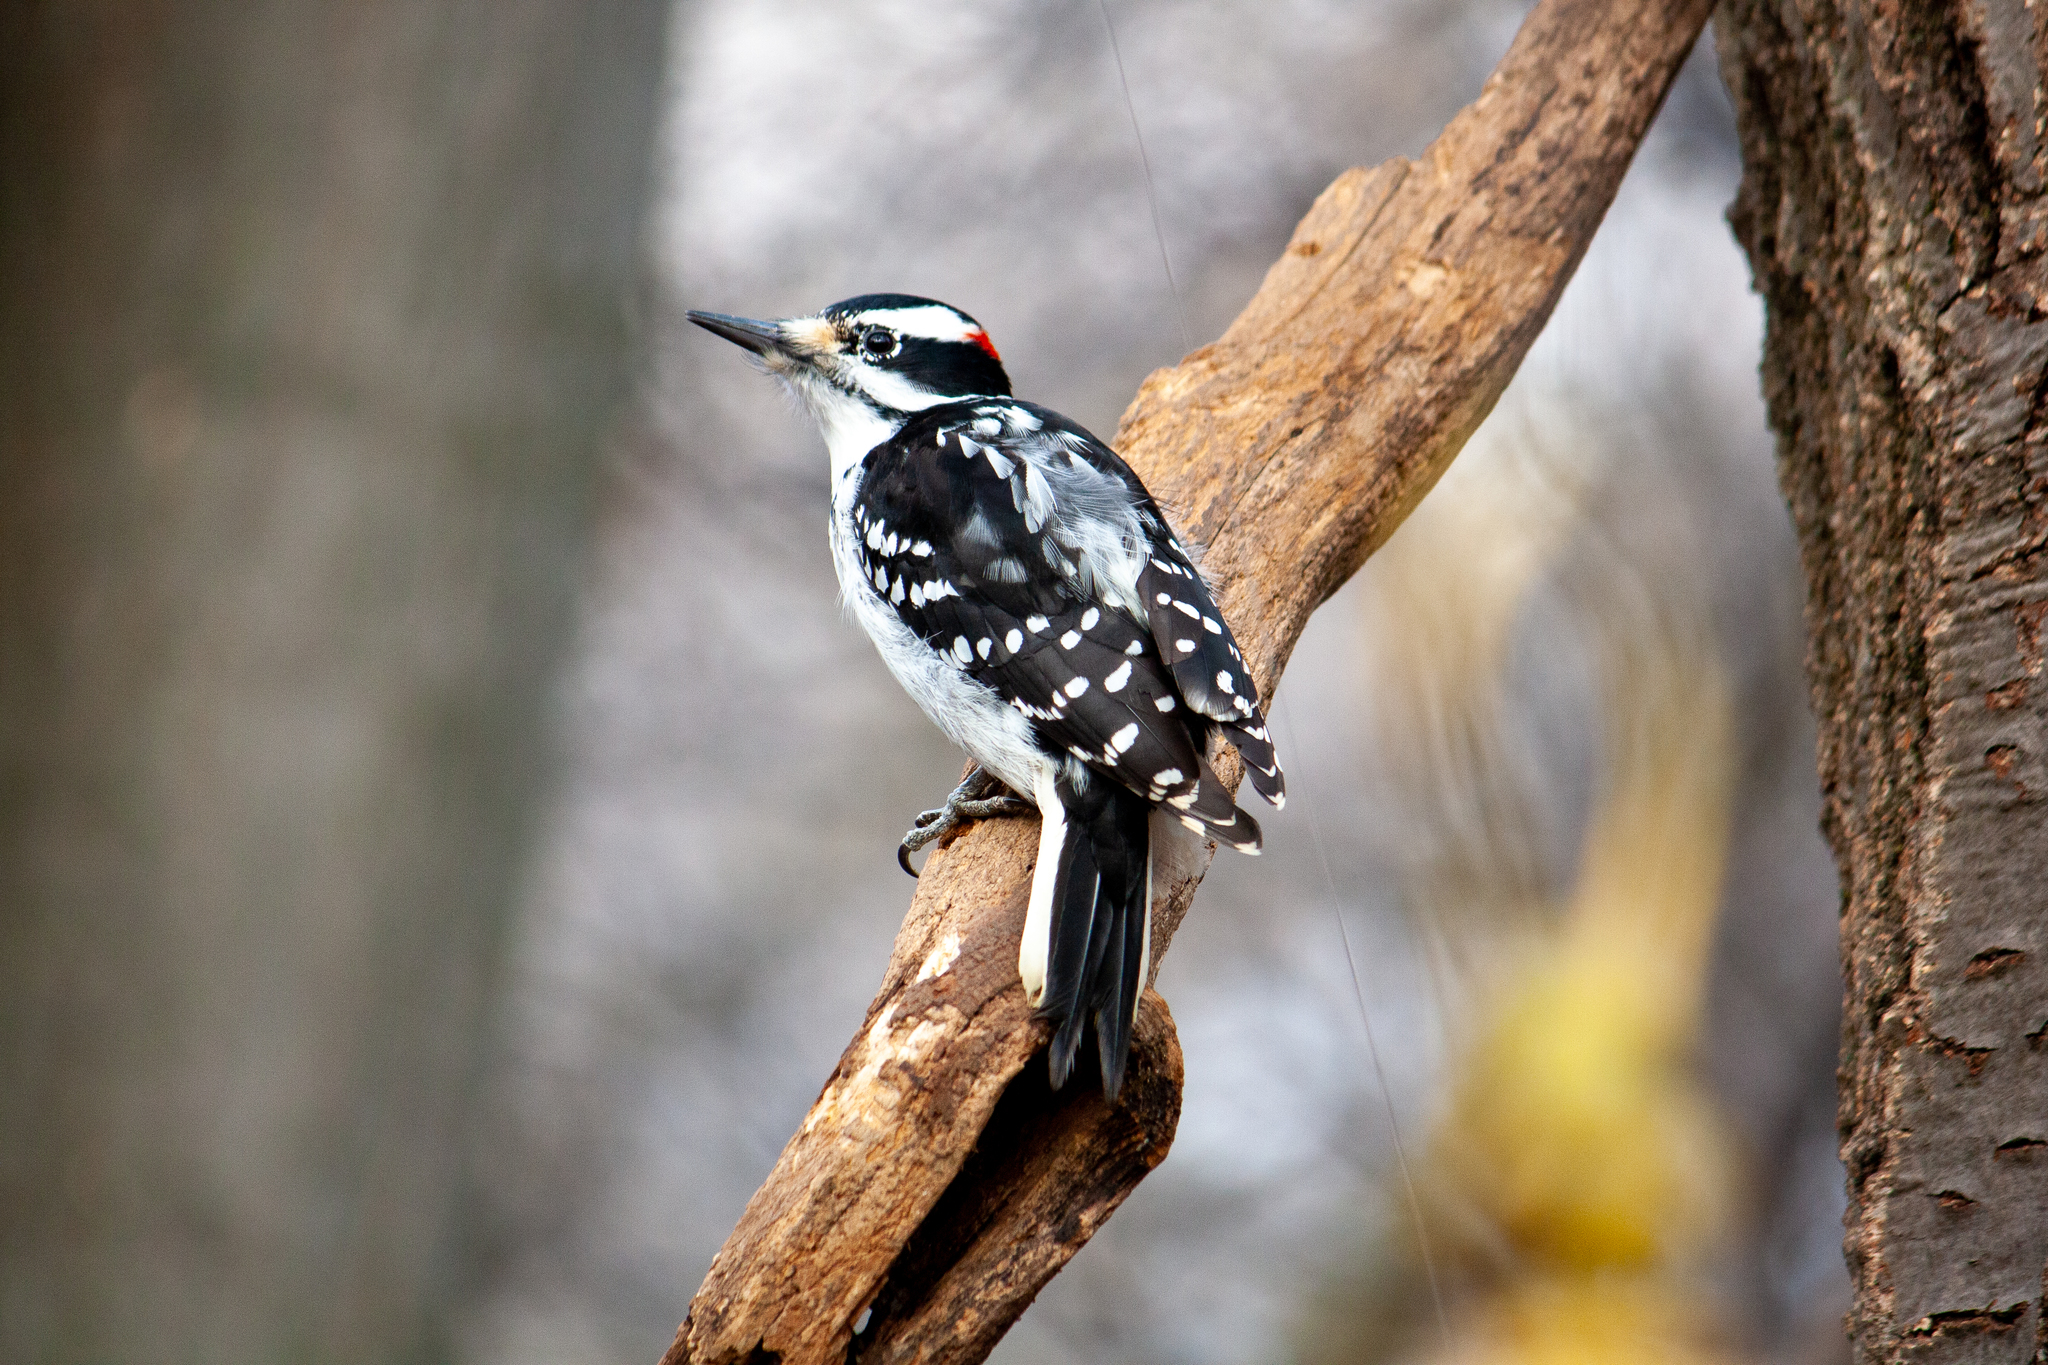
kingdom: Animalia
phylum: Chordata
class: Aves
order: Piciformes
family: Picidae
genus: Leuconotopicus
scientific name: Leuconotopicus villosus
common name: Hairy woodpecker
